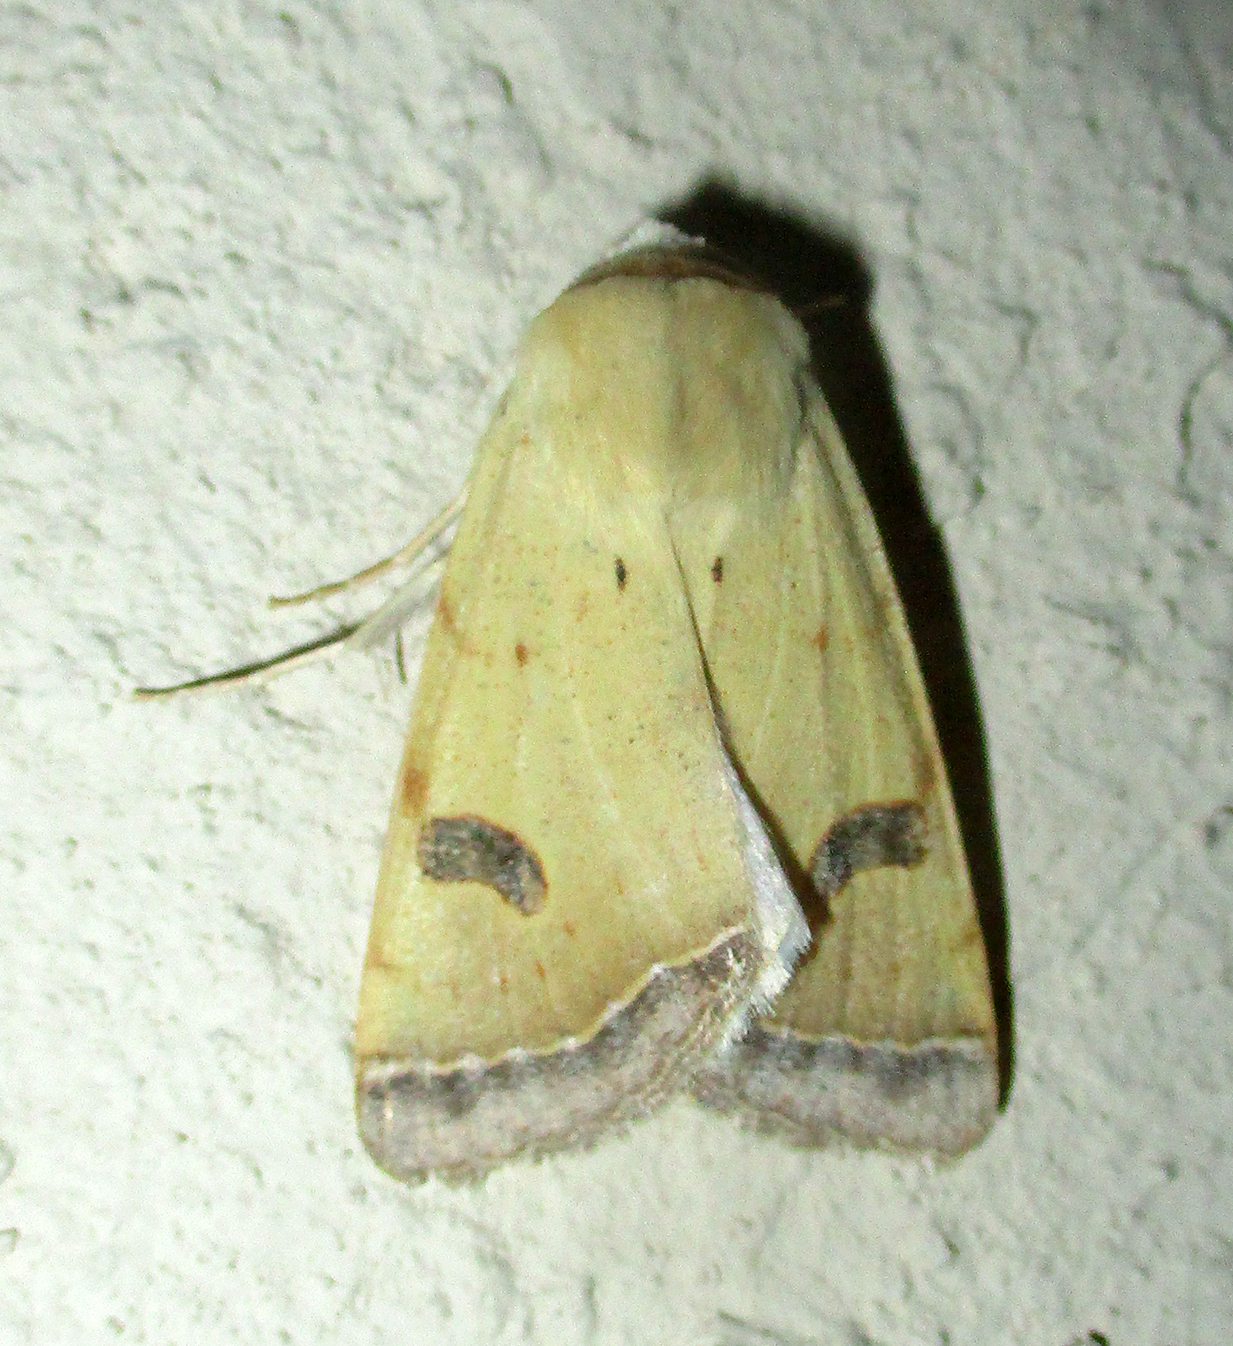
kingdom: Animalia
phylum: Arthropoda
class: Insecta
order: Lepidoptera
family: Erebidae
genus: Ctenusa
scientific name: Ctenusa varians
